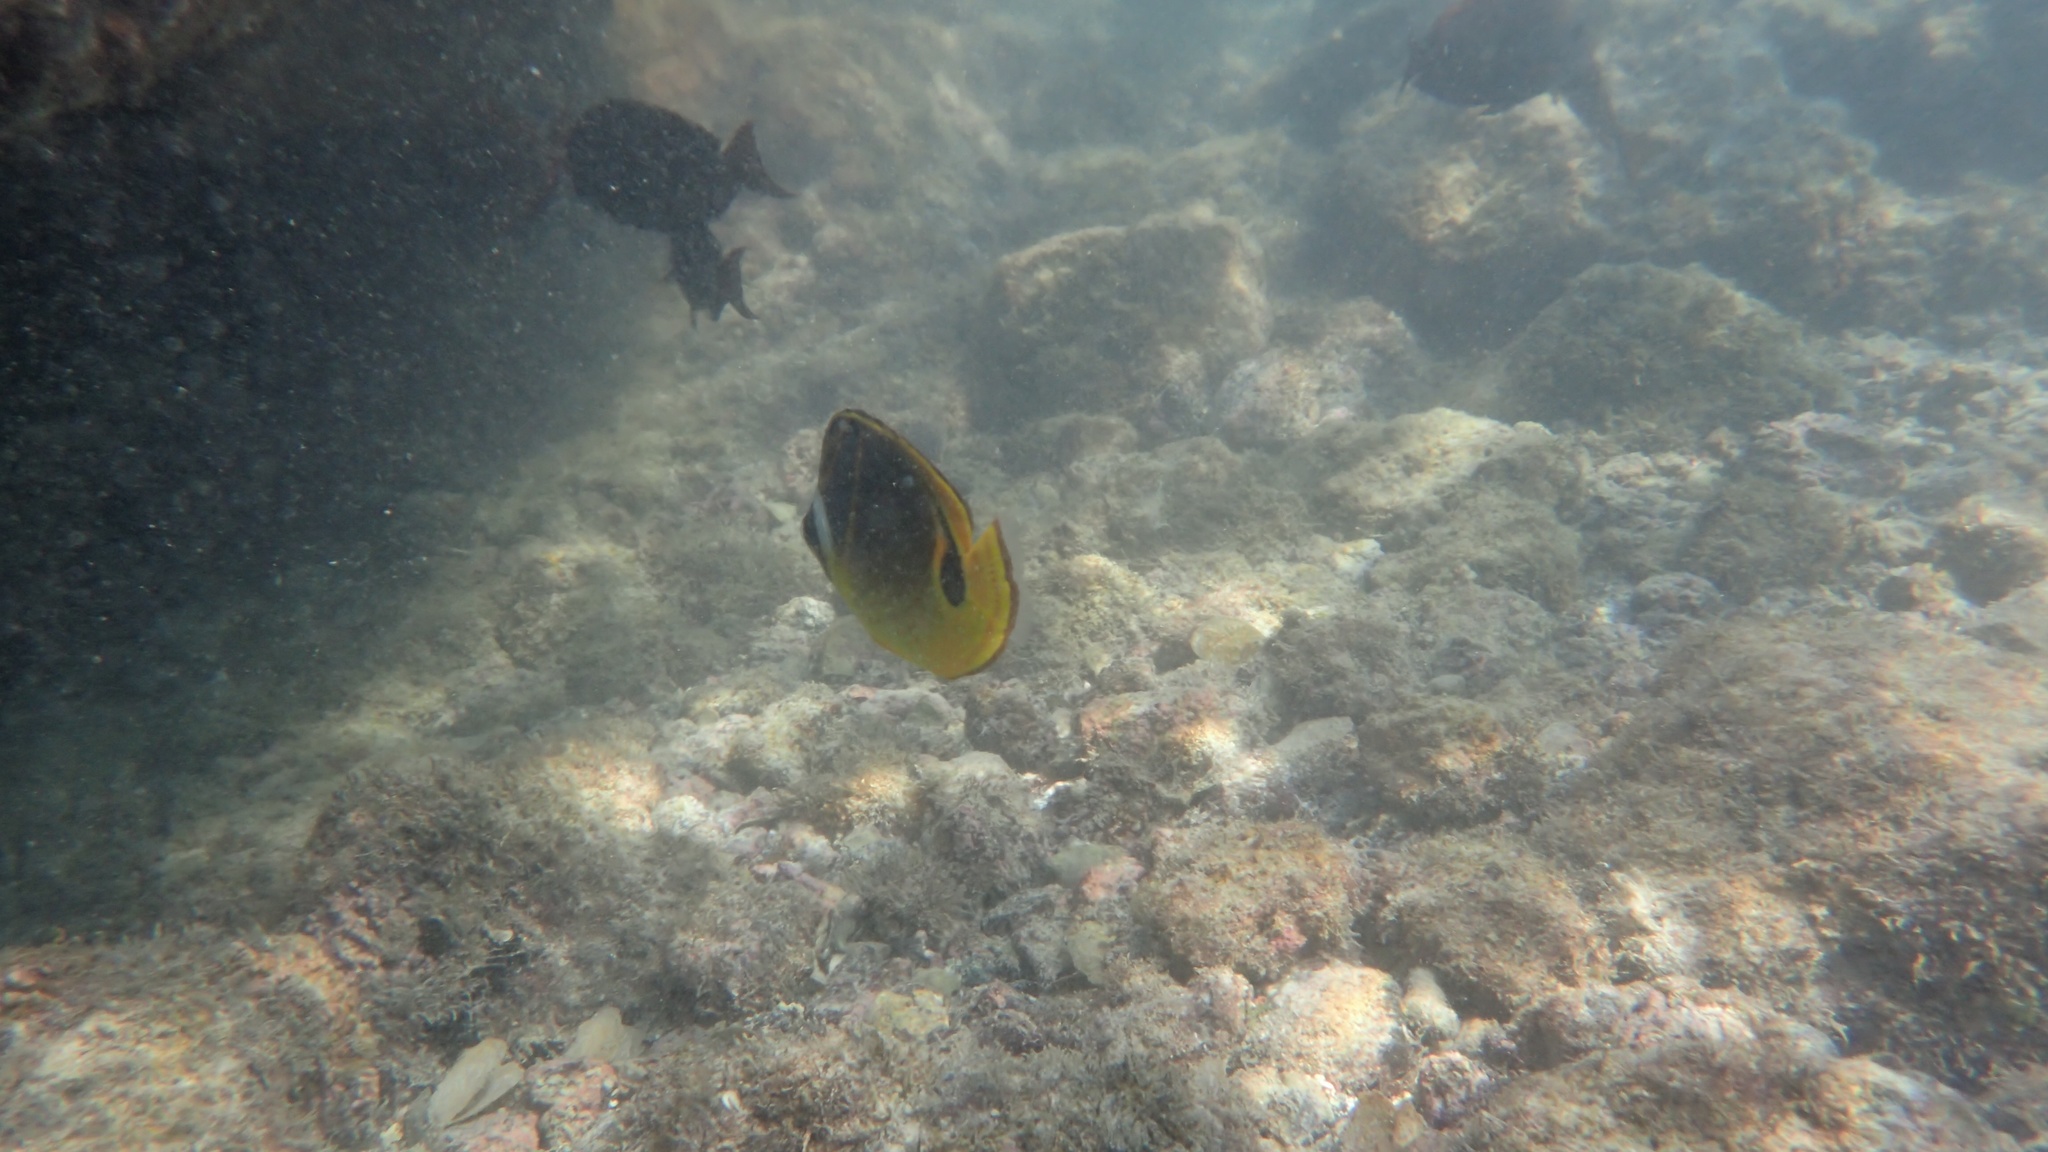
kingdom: Animalia
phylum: Chordata
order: Perciformes
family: Chaetodontidae
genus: Chaetodon
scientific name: Chaetodon lunula
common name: Raccoon butterflyfish
